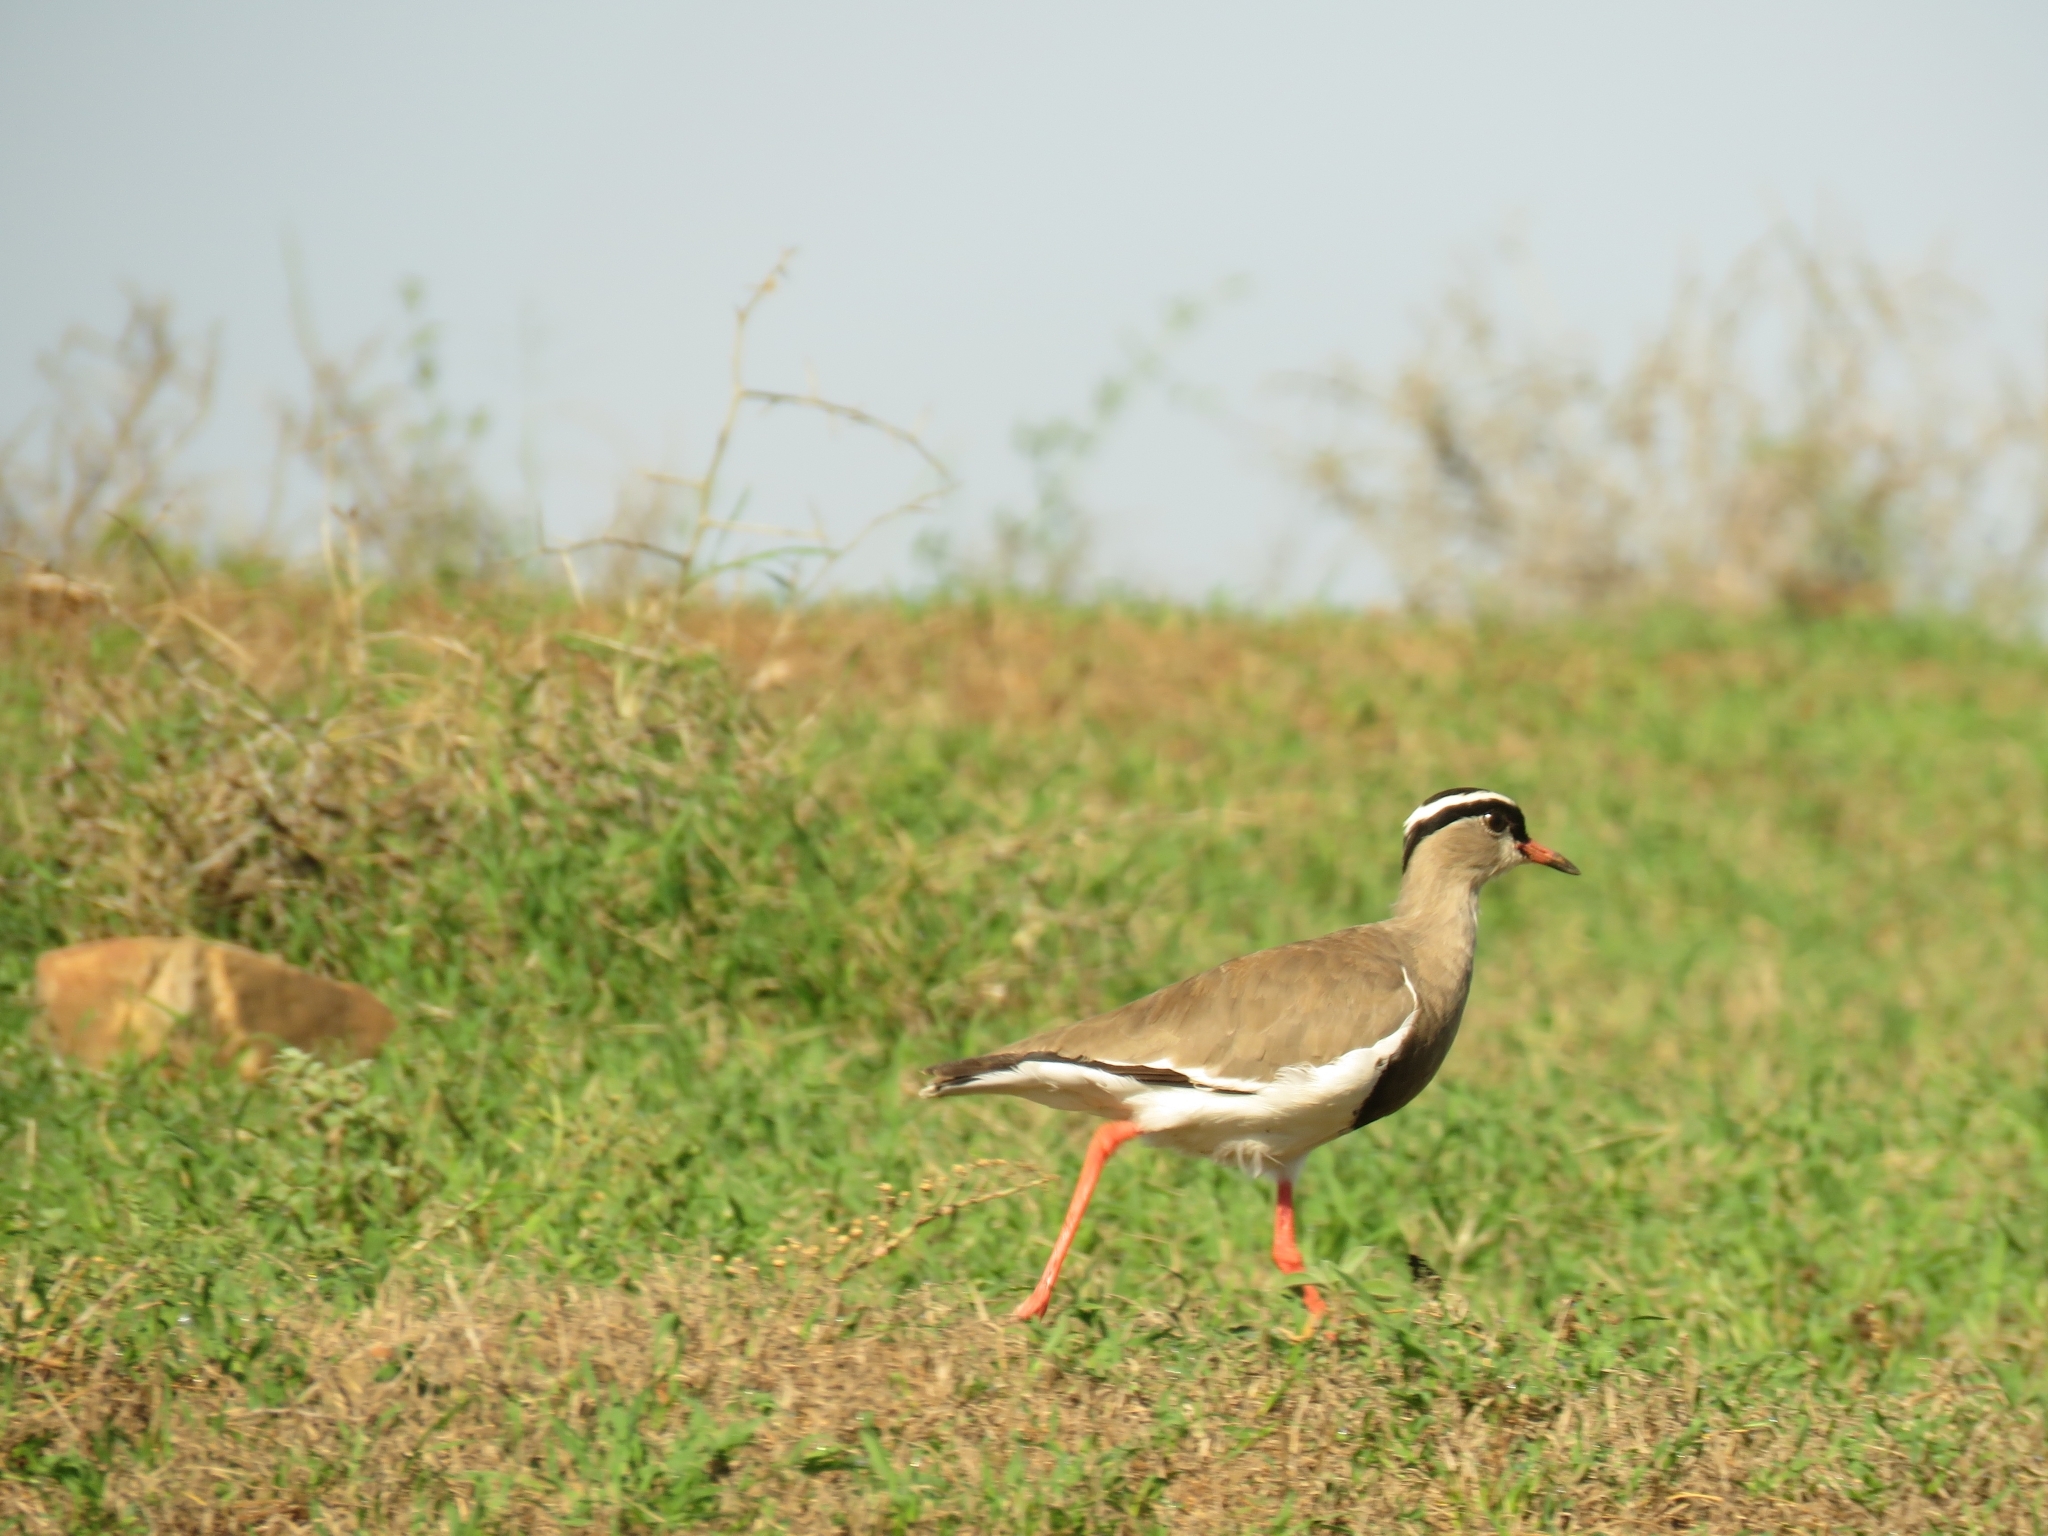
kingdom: Animalia
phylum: Chordata
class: Aves
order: Charadriiformes
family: Charadriidae
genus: Vanellus
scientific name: Vanellus coronatus
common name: Crowned lapwing
